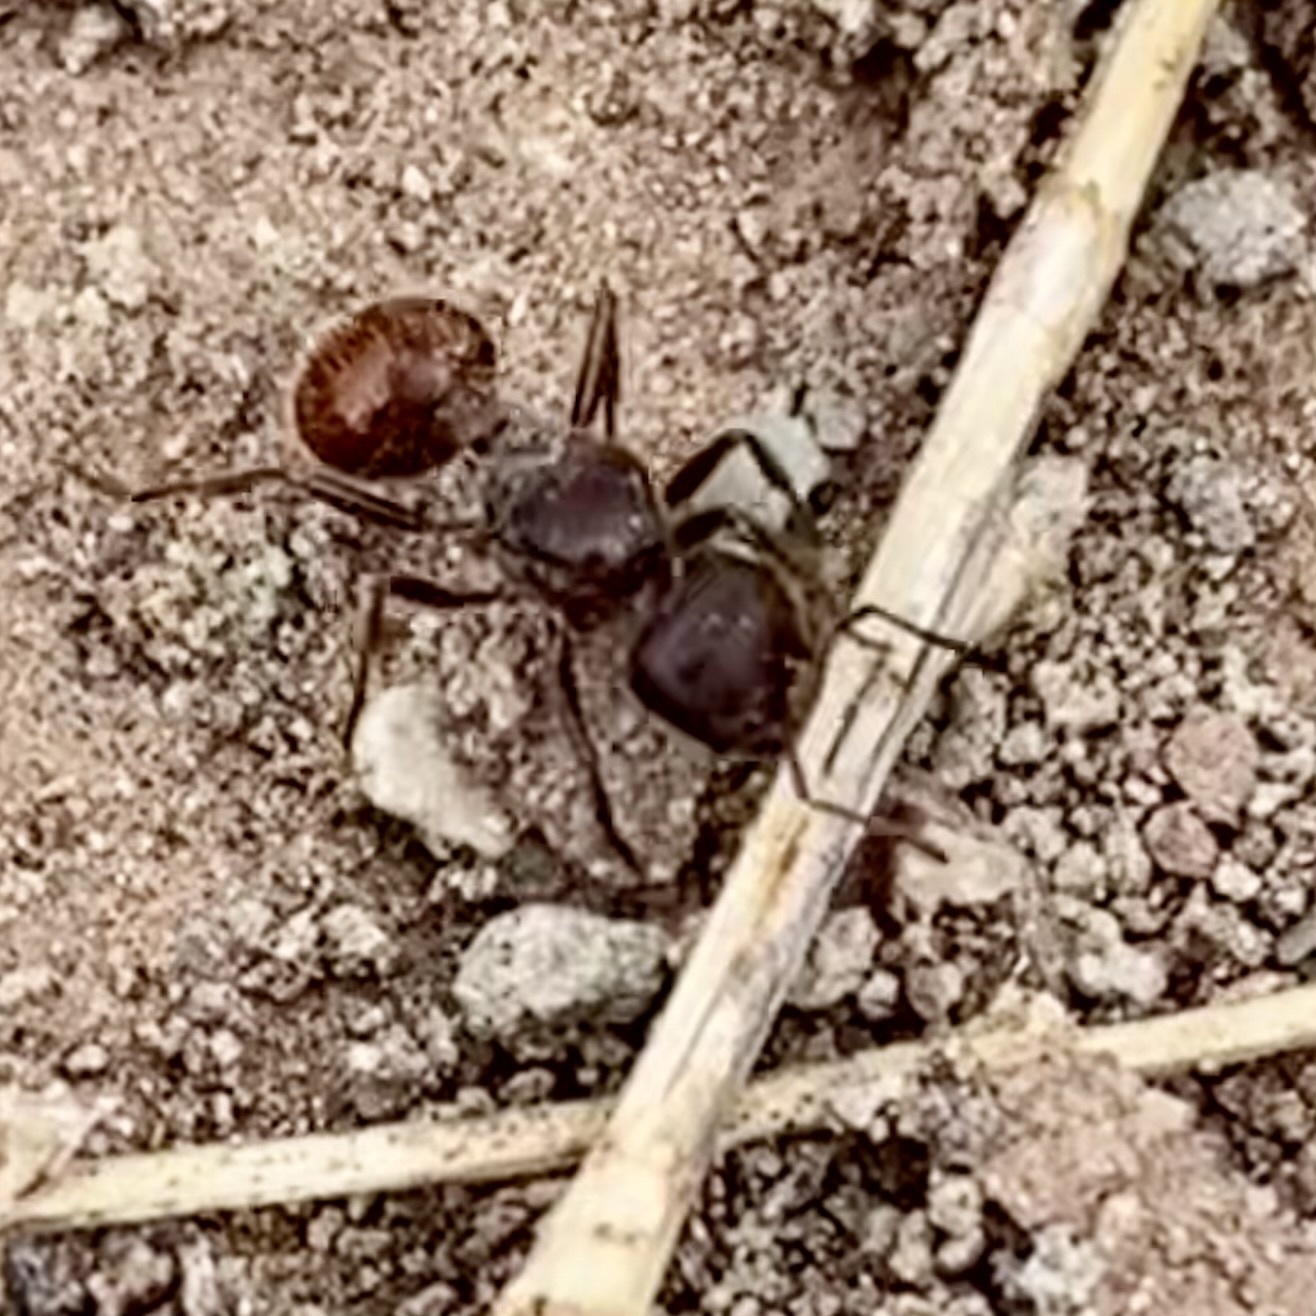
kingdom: Animalia
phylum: Arthropoda
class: Insecta
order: Hymenoptera
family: Formicidae
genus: Pogonomyrmex
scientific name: Pogonomyrmex rugosus
